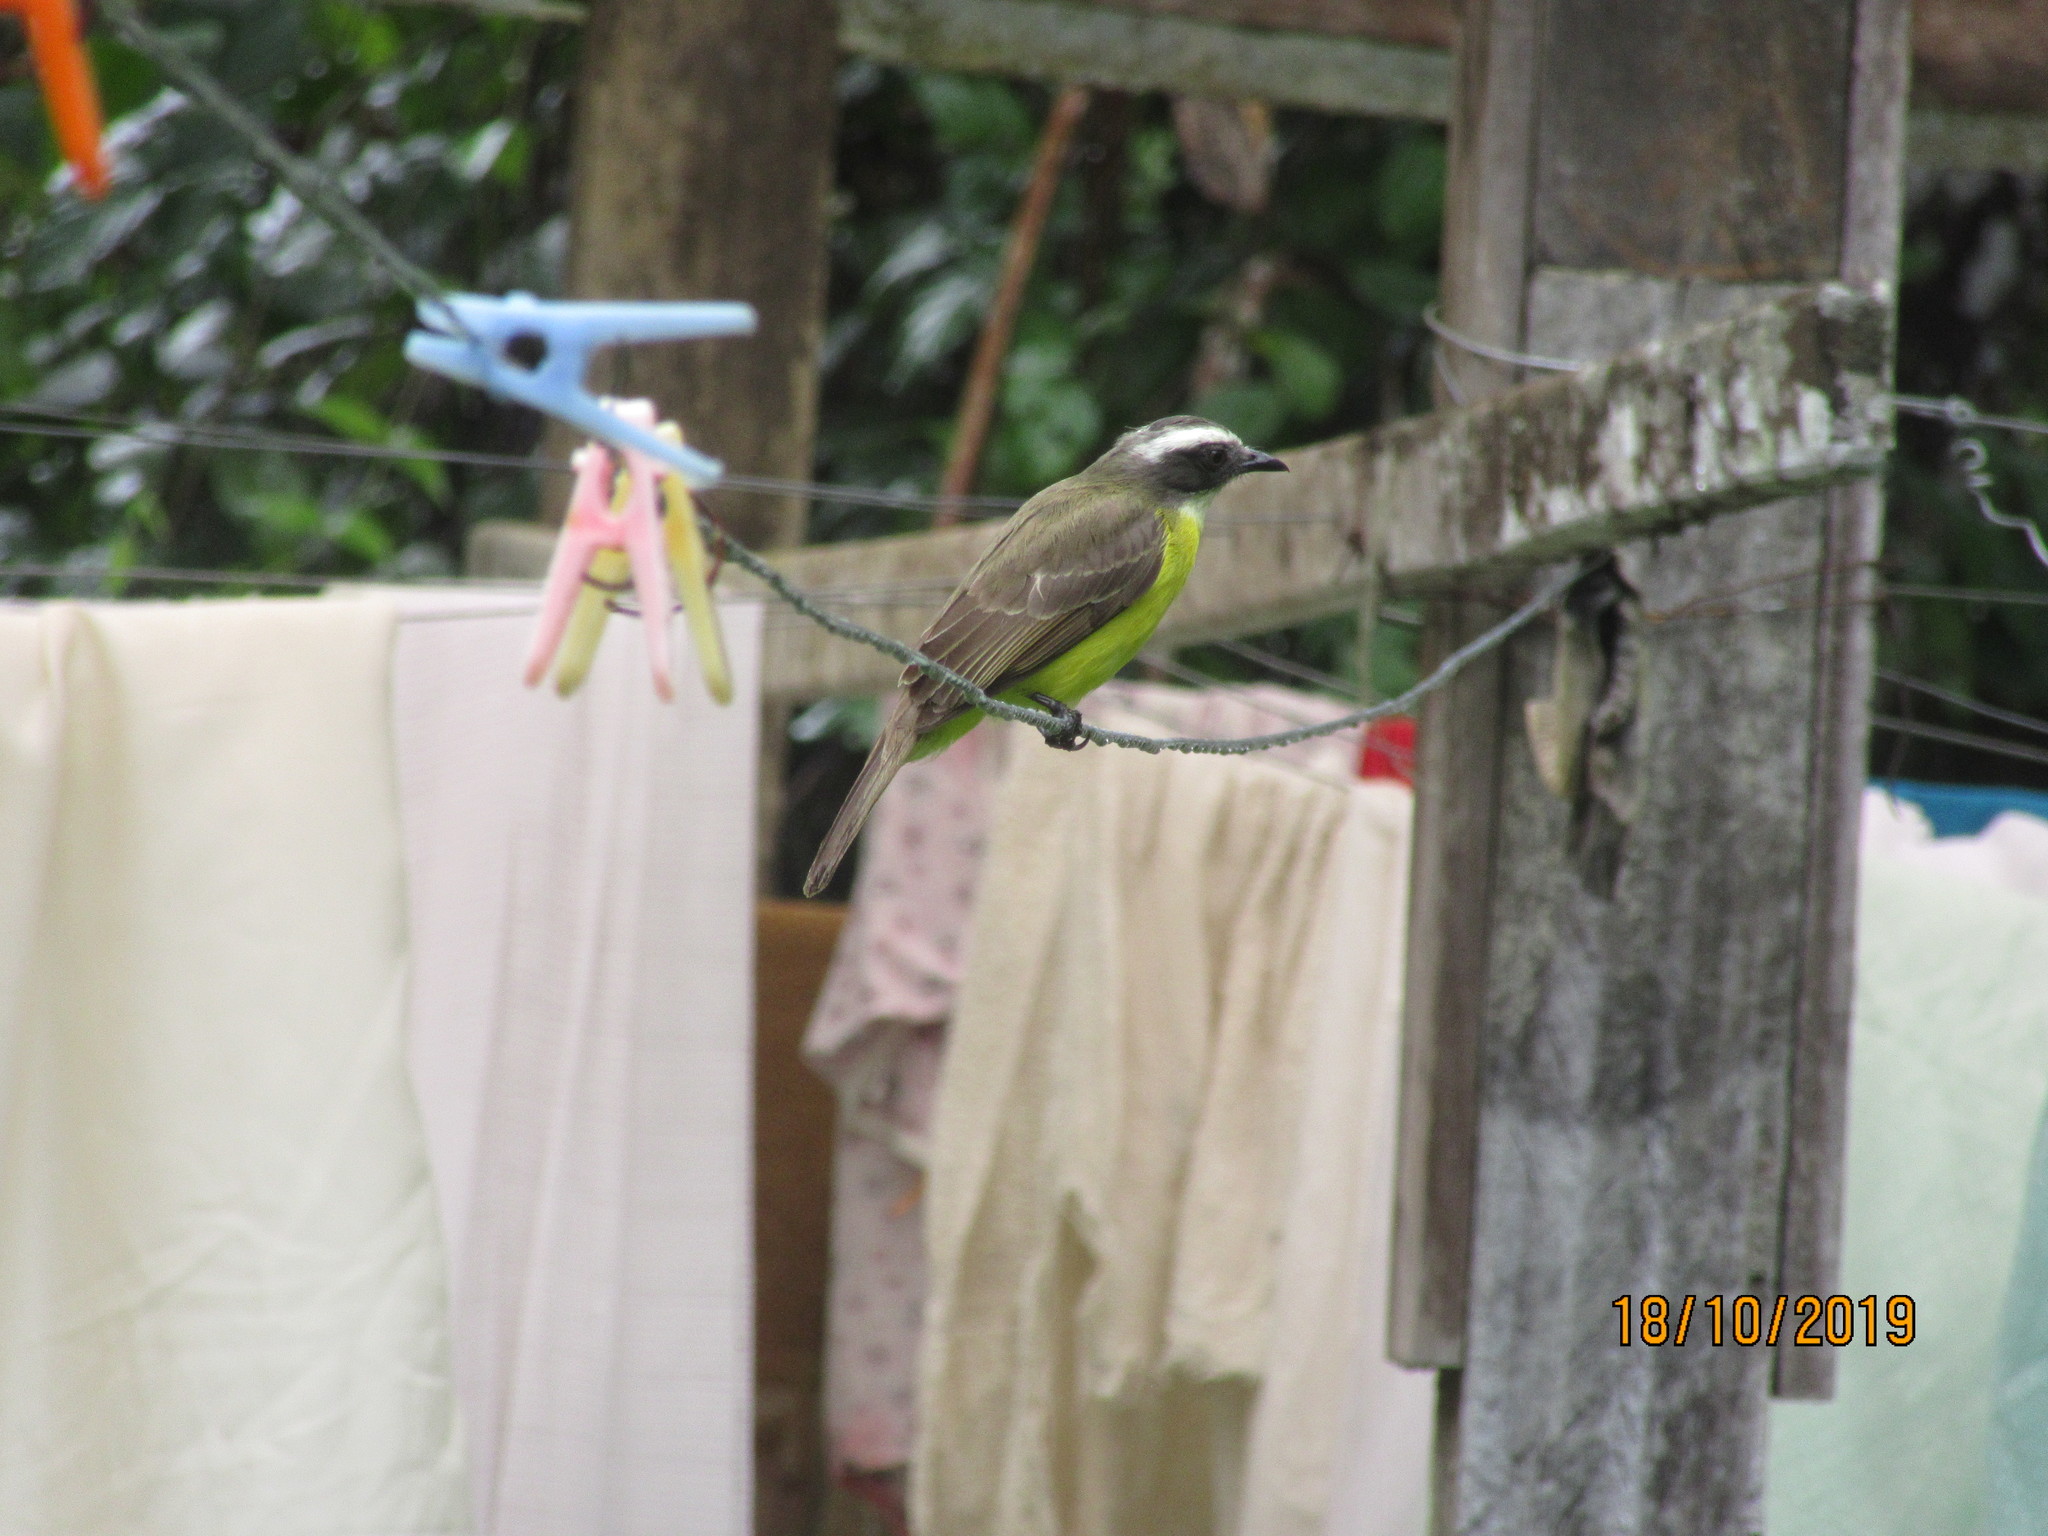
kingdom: Animalia
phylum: Chordata
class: Aves
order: Passeriformes
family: Tyrannidae
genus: Myiozetetes
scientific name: Myiozetetes similis
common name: Social flycatcher
